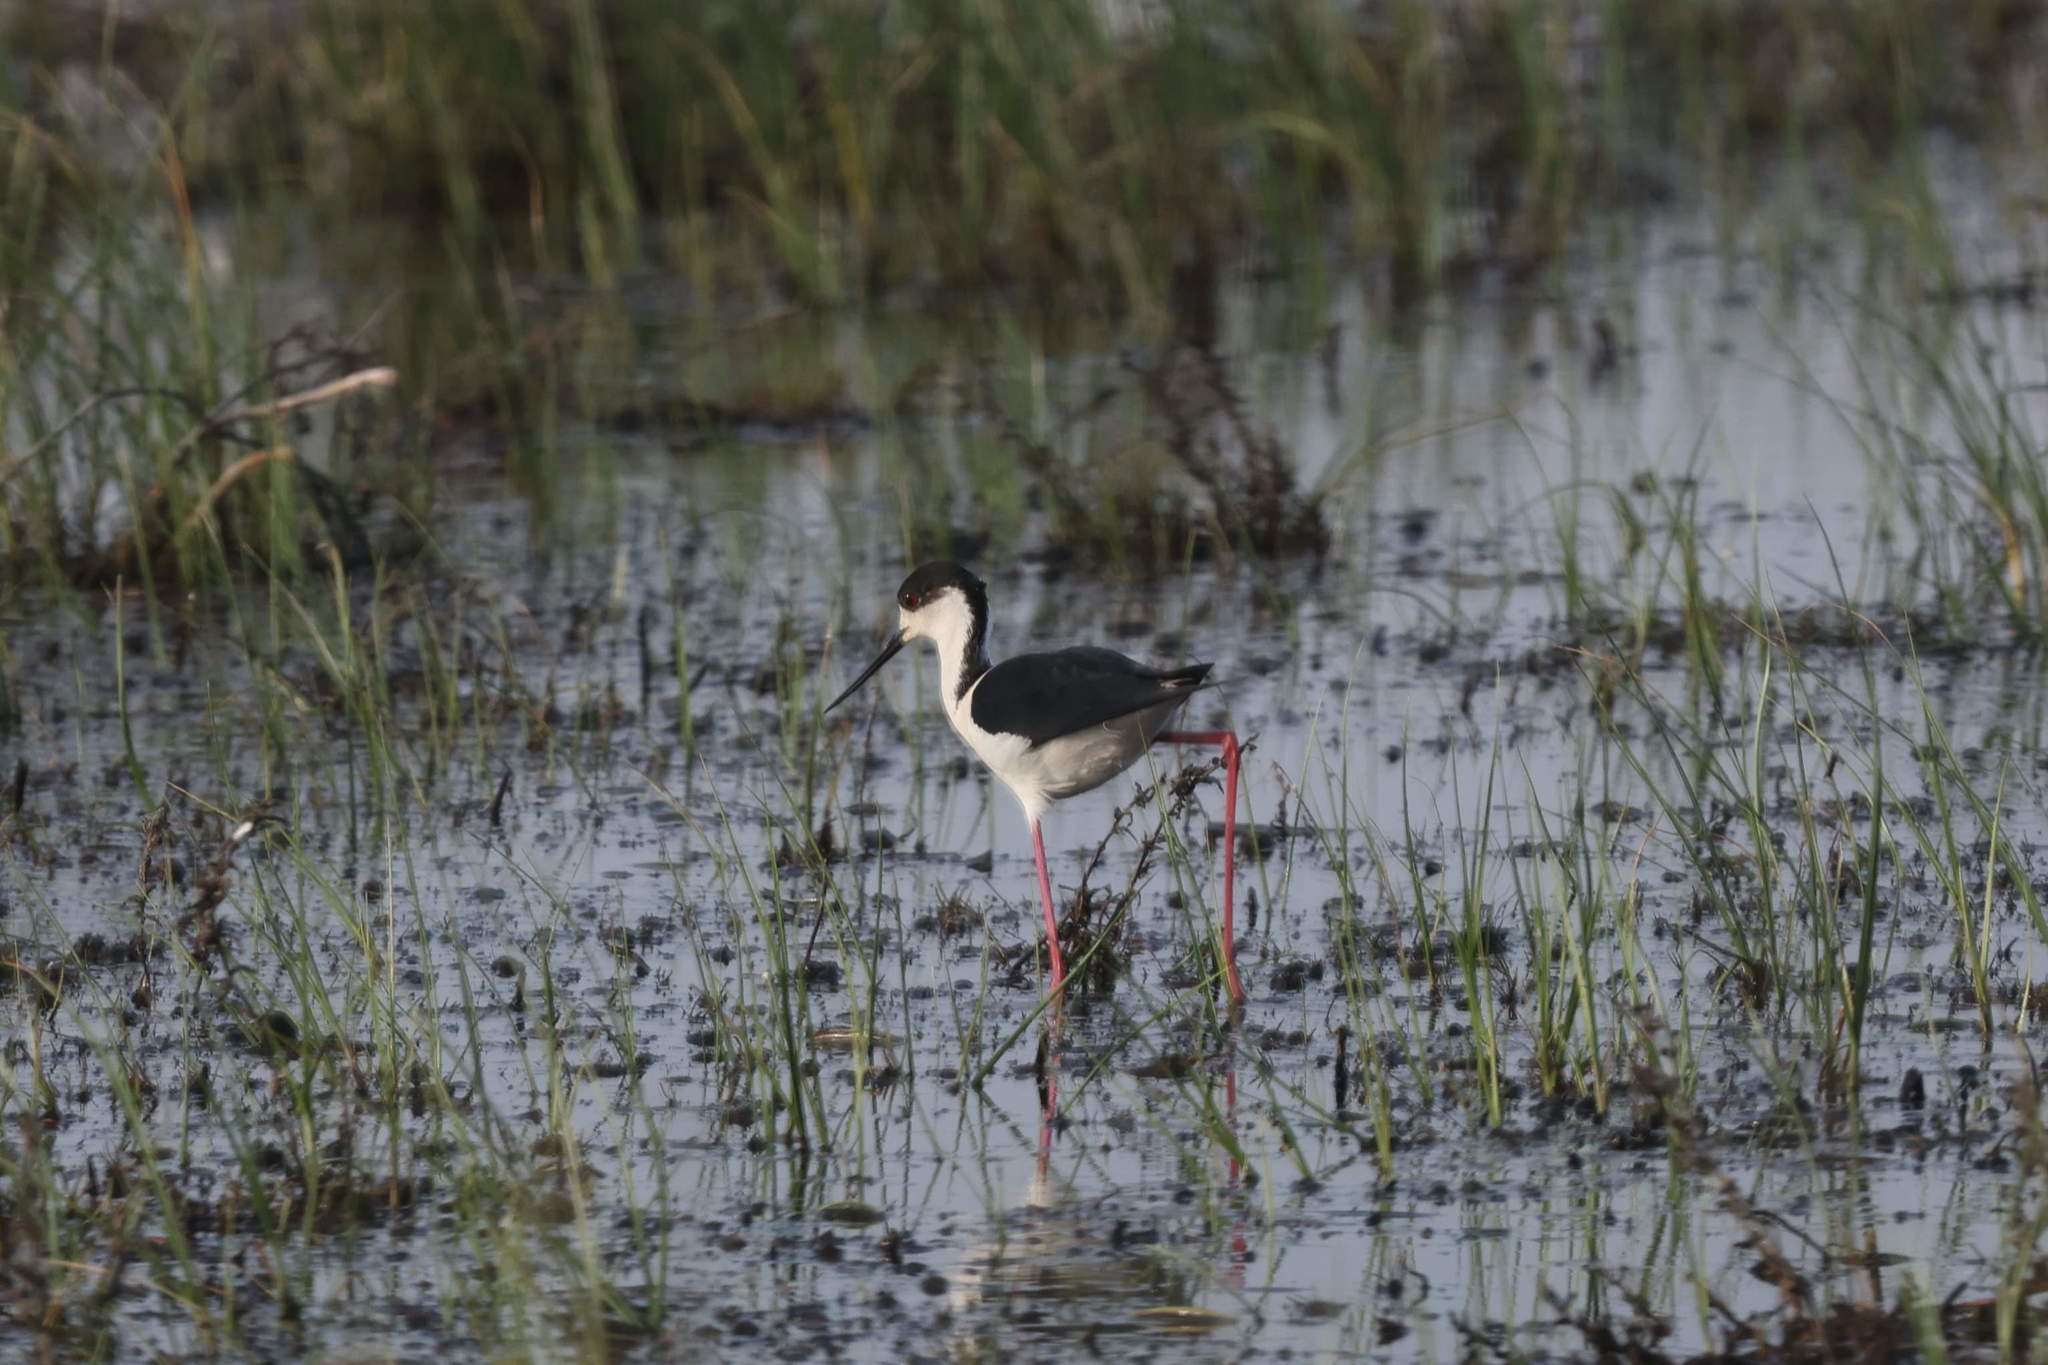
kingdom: Animalia
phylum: Chordata
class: Aves
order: Charadriiformes
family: Recurvirostridae
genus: Himantopus
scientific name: Himantopus himantopus
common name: Black-winged stilt
